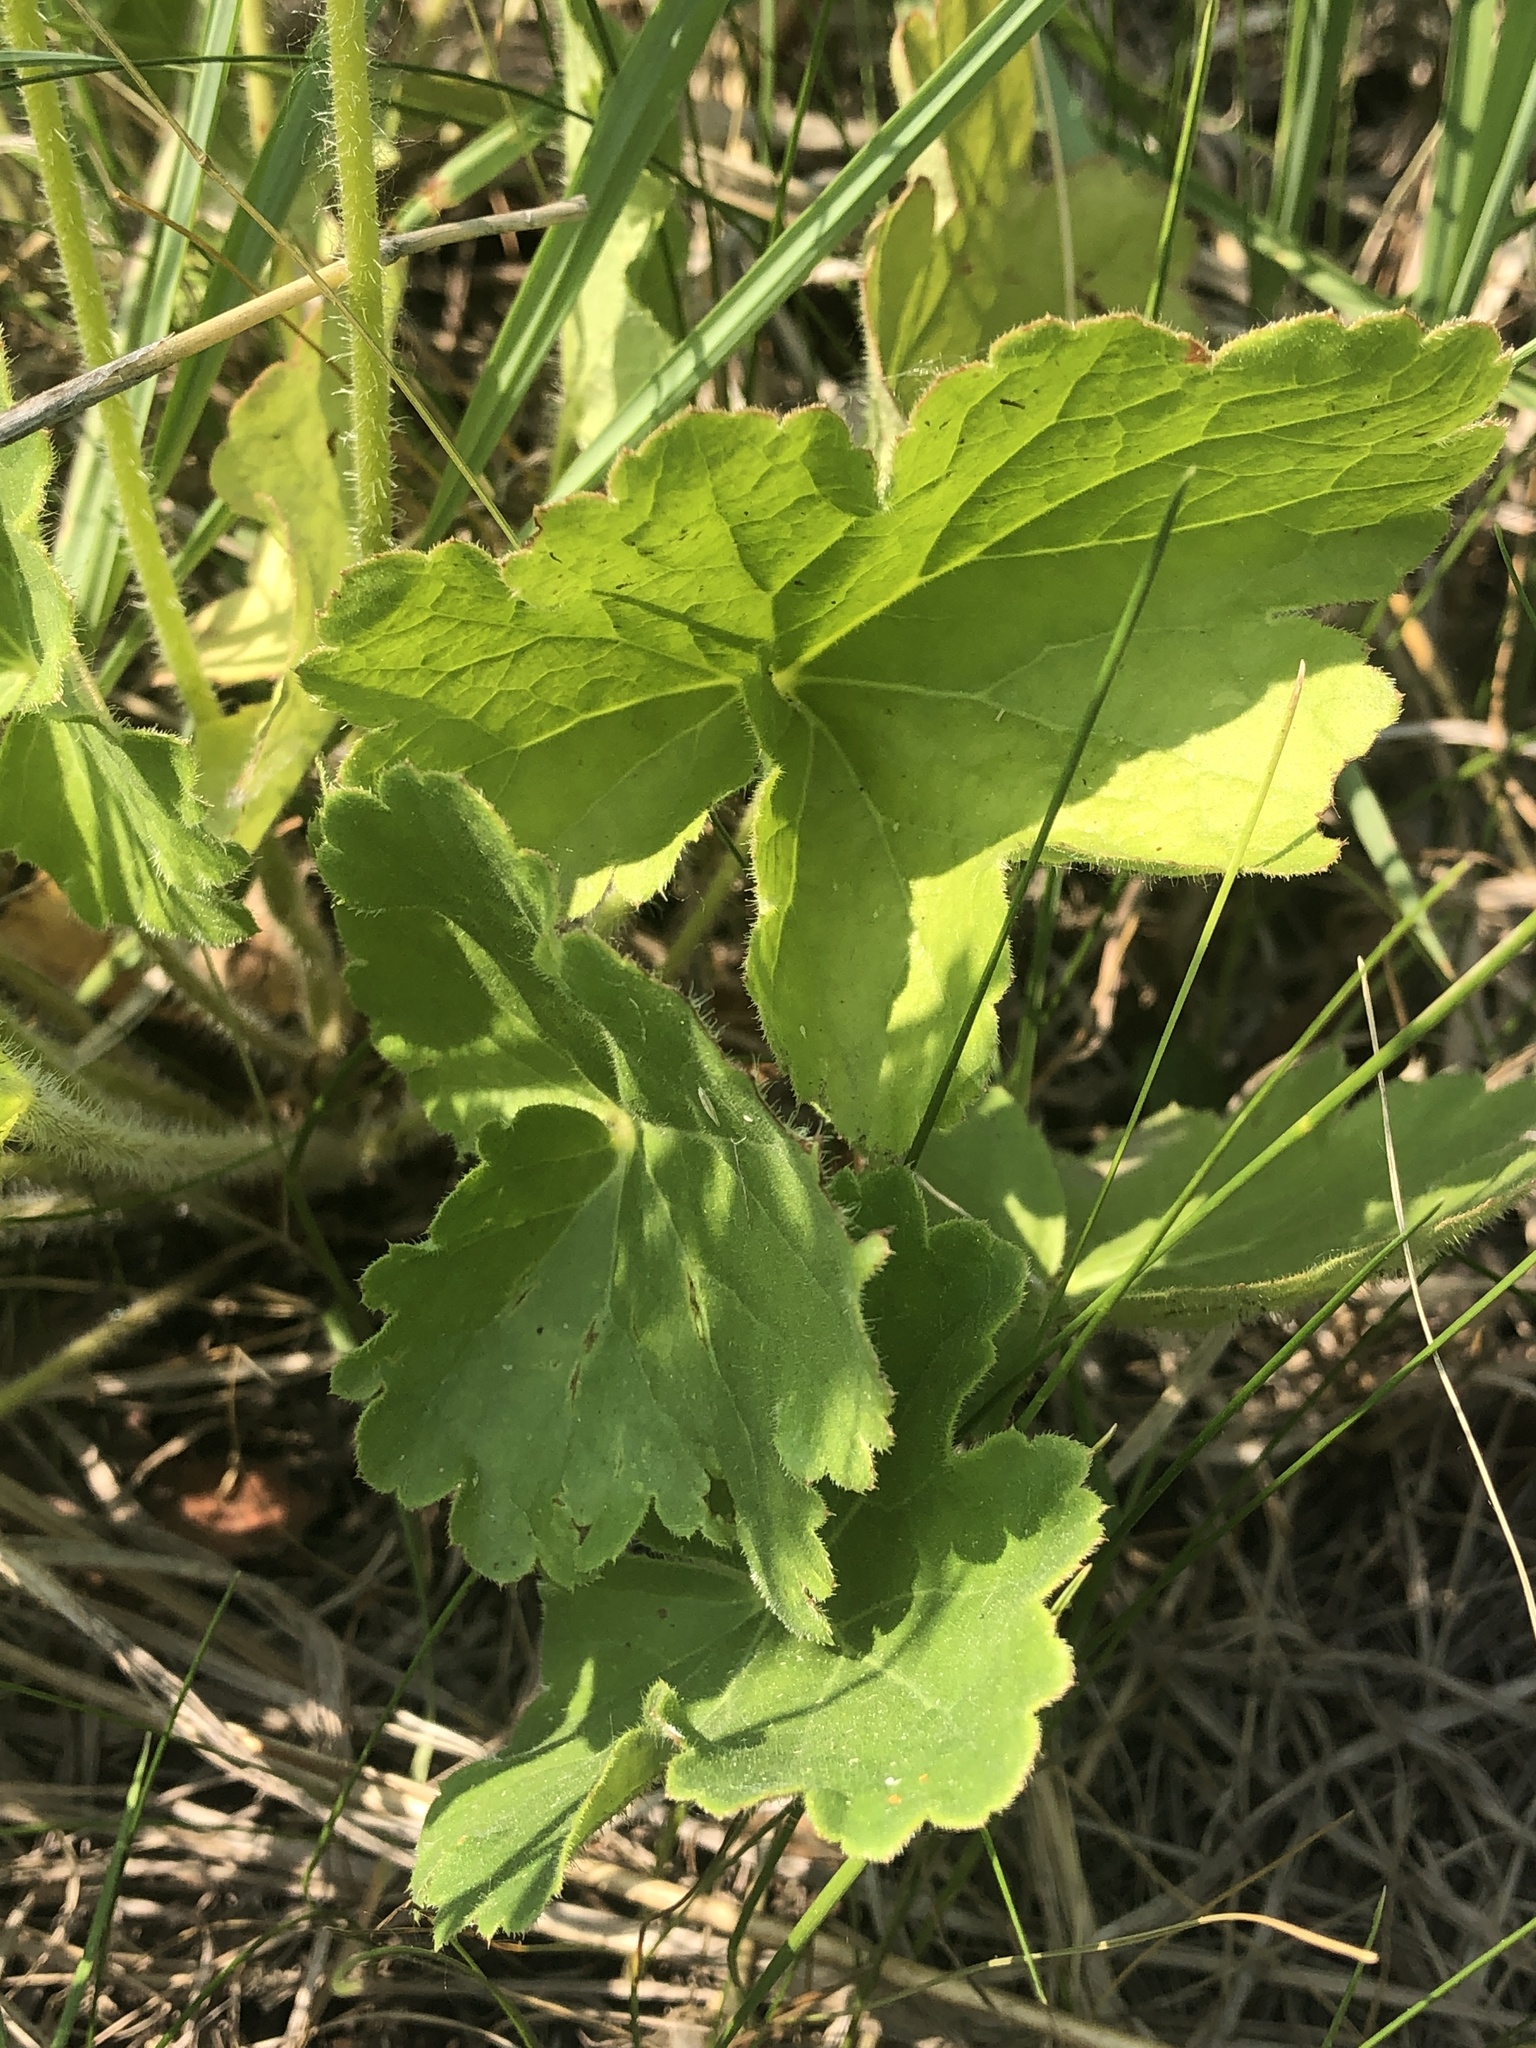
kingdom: Plantae
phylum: Tracheophyta
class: Magnoliopsida
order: Saxifragales
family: Saxifragaceae
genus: Heuchera
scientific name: Heuchera richardsonii
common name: Richardson's alumroot
